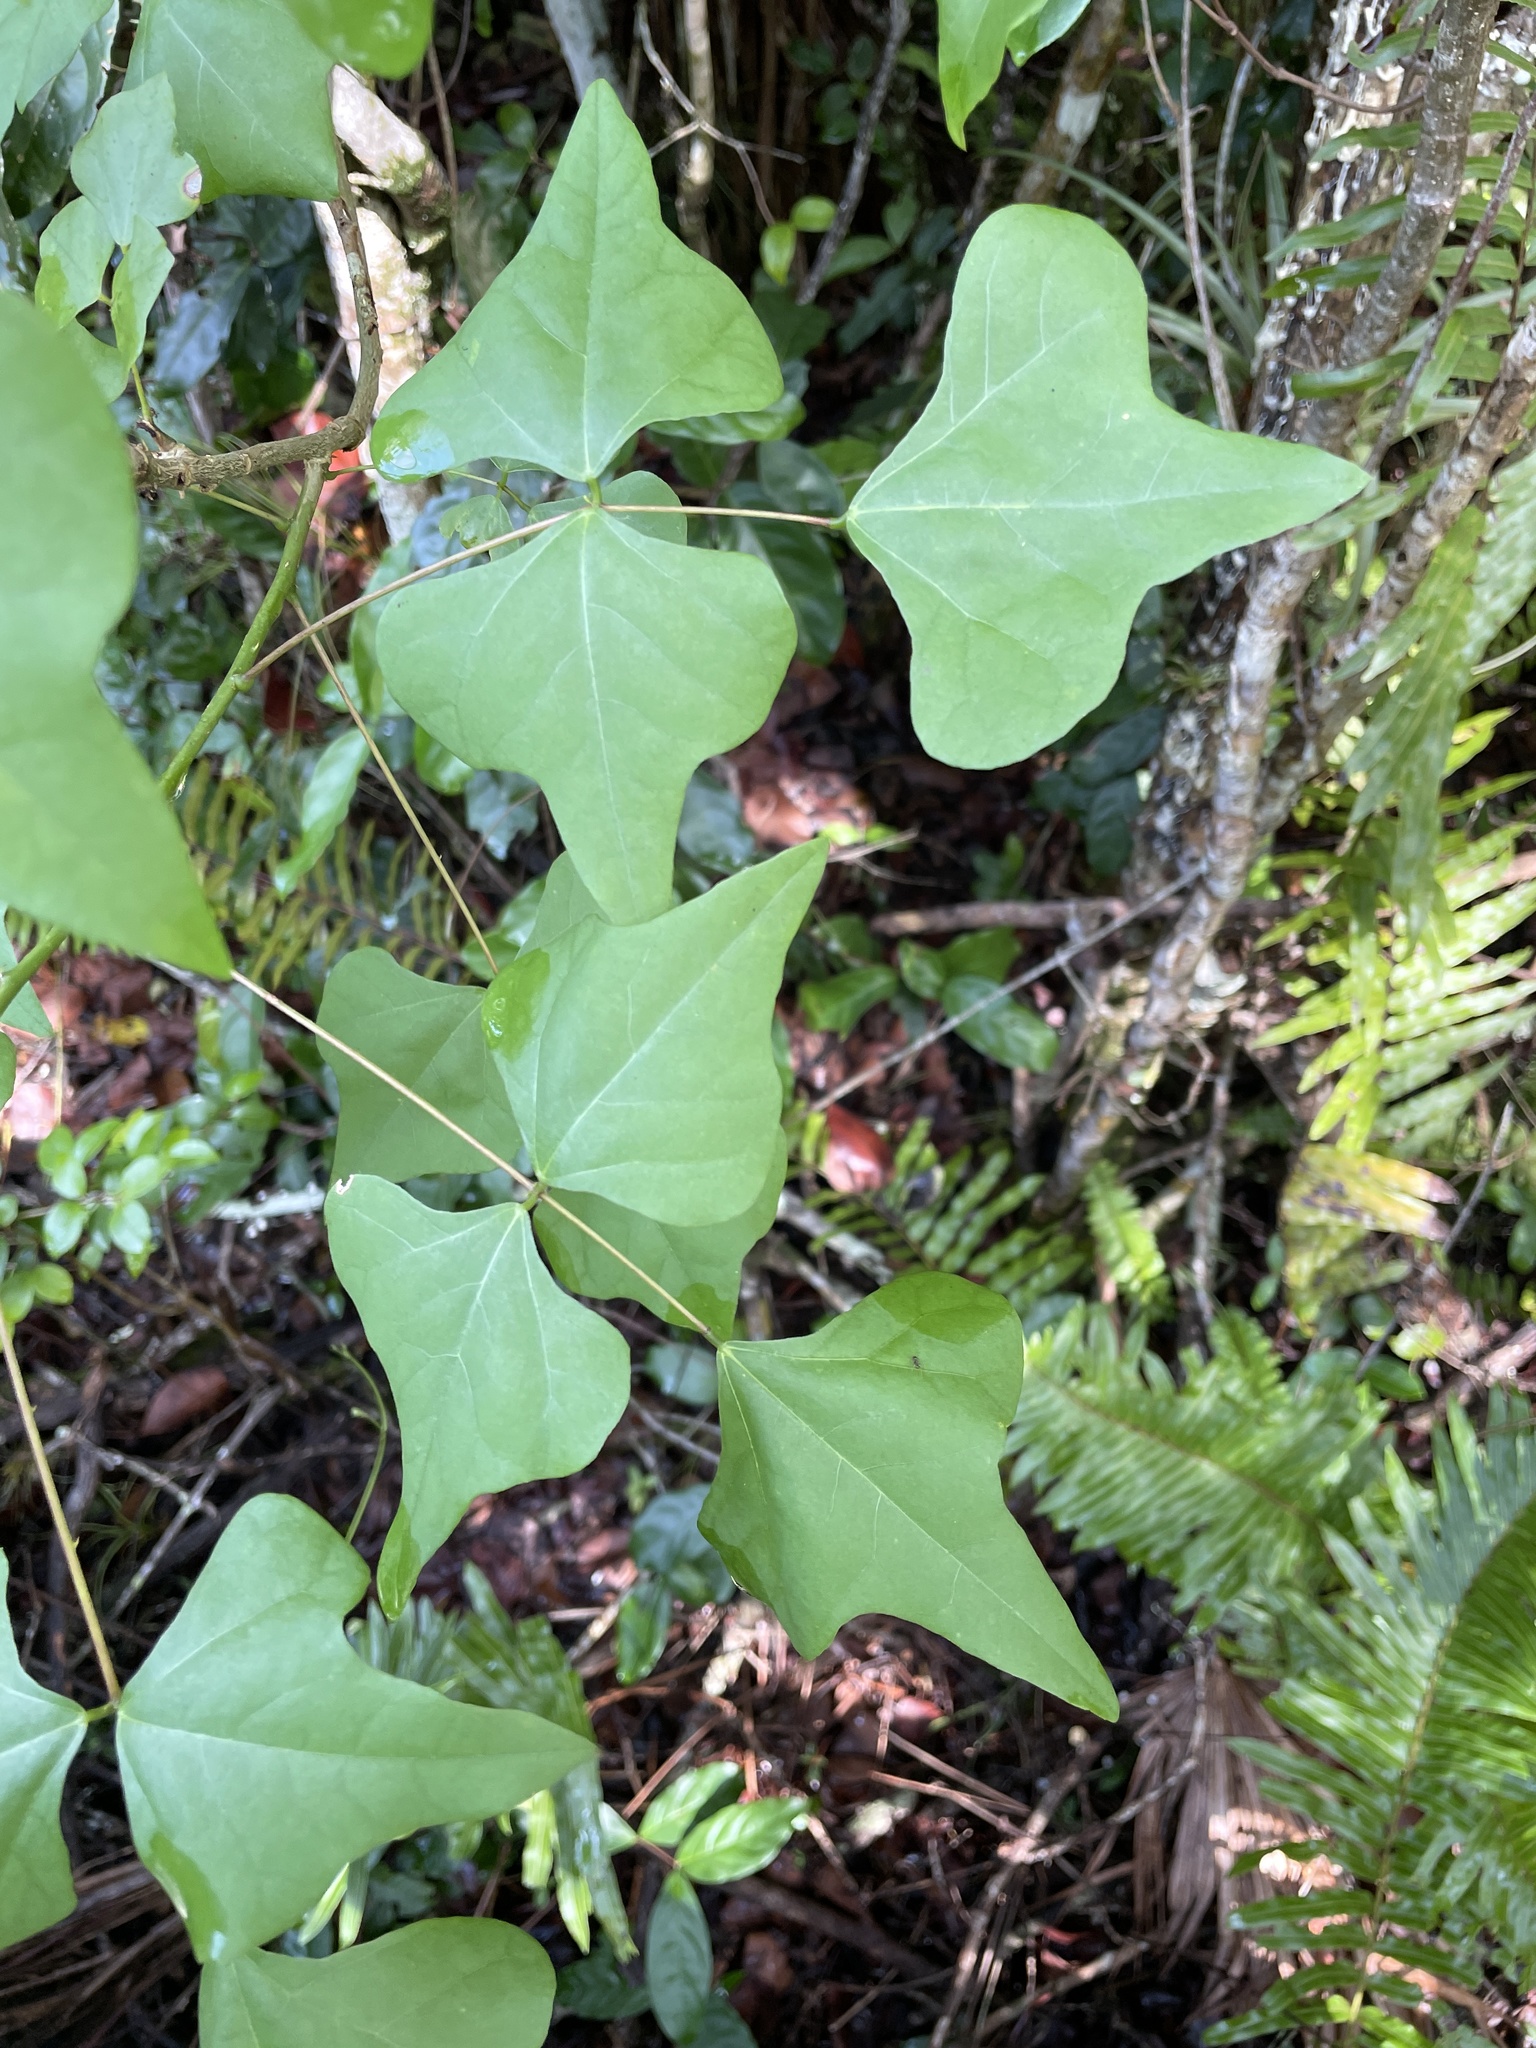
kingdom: Plantae
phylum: Tracheophyta
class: Magnoliopsida
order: Fabales
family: Fabaceae
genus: Erythrina
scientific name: Erythrina herbacea
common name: Coral-bean
